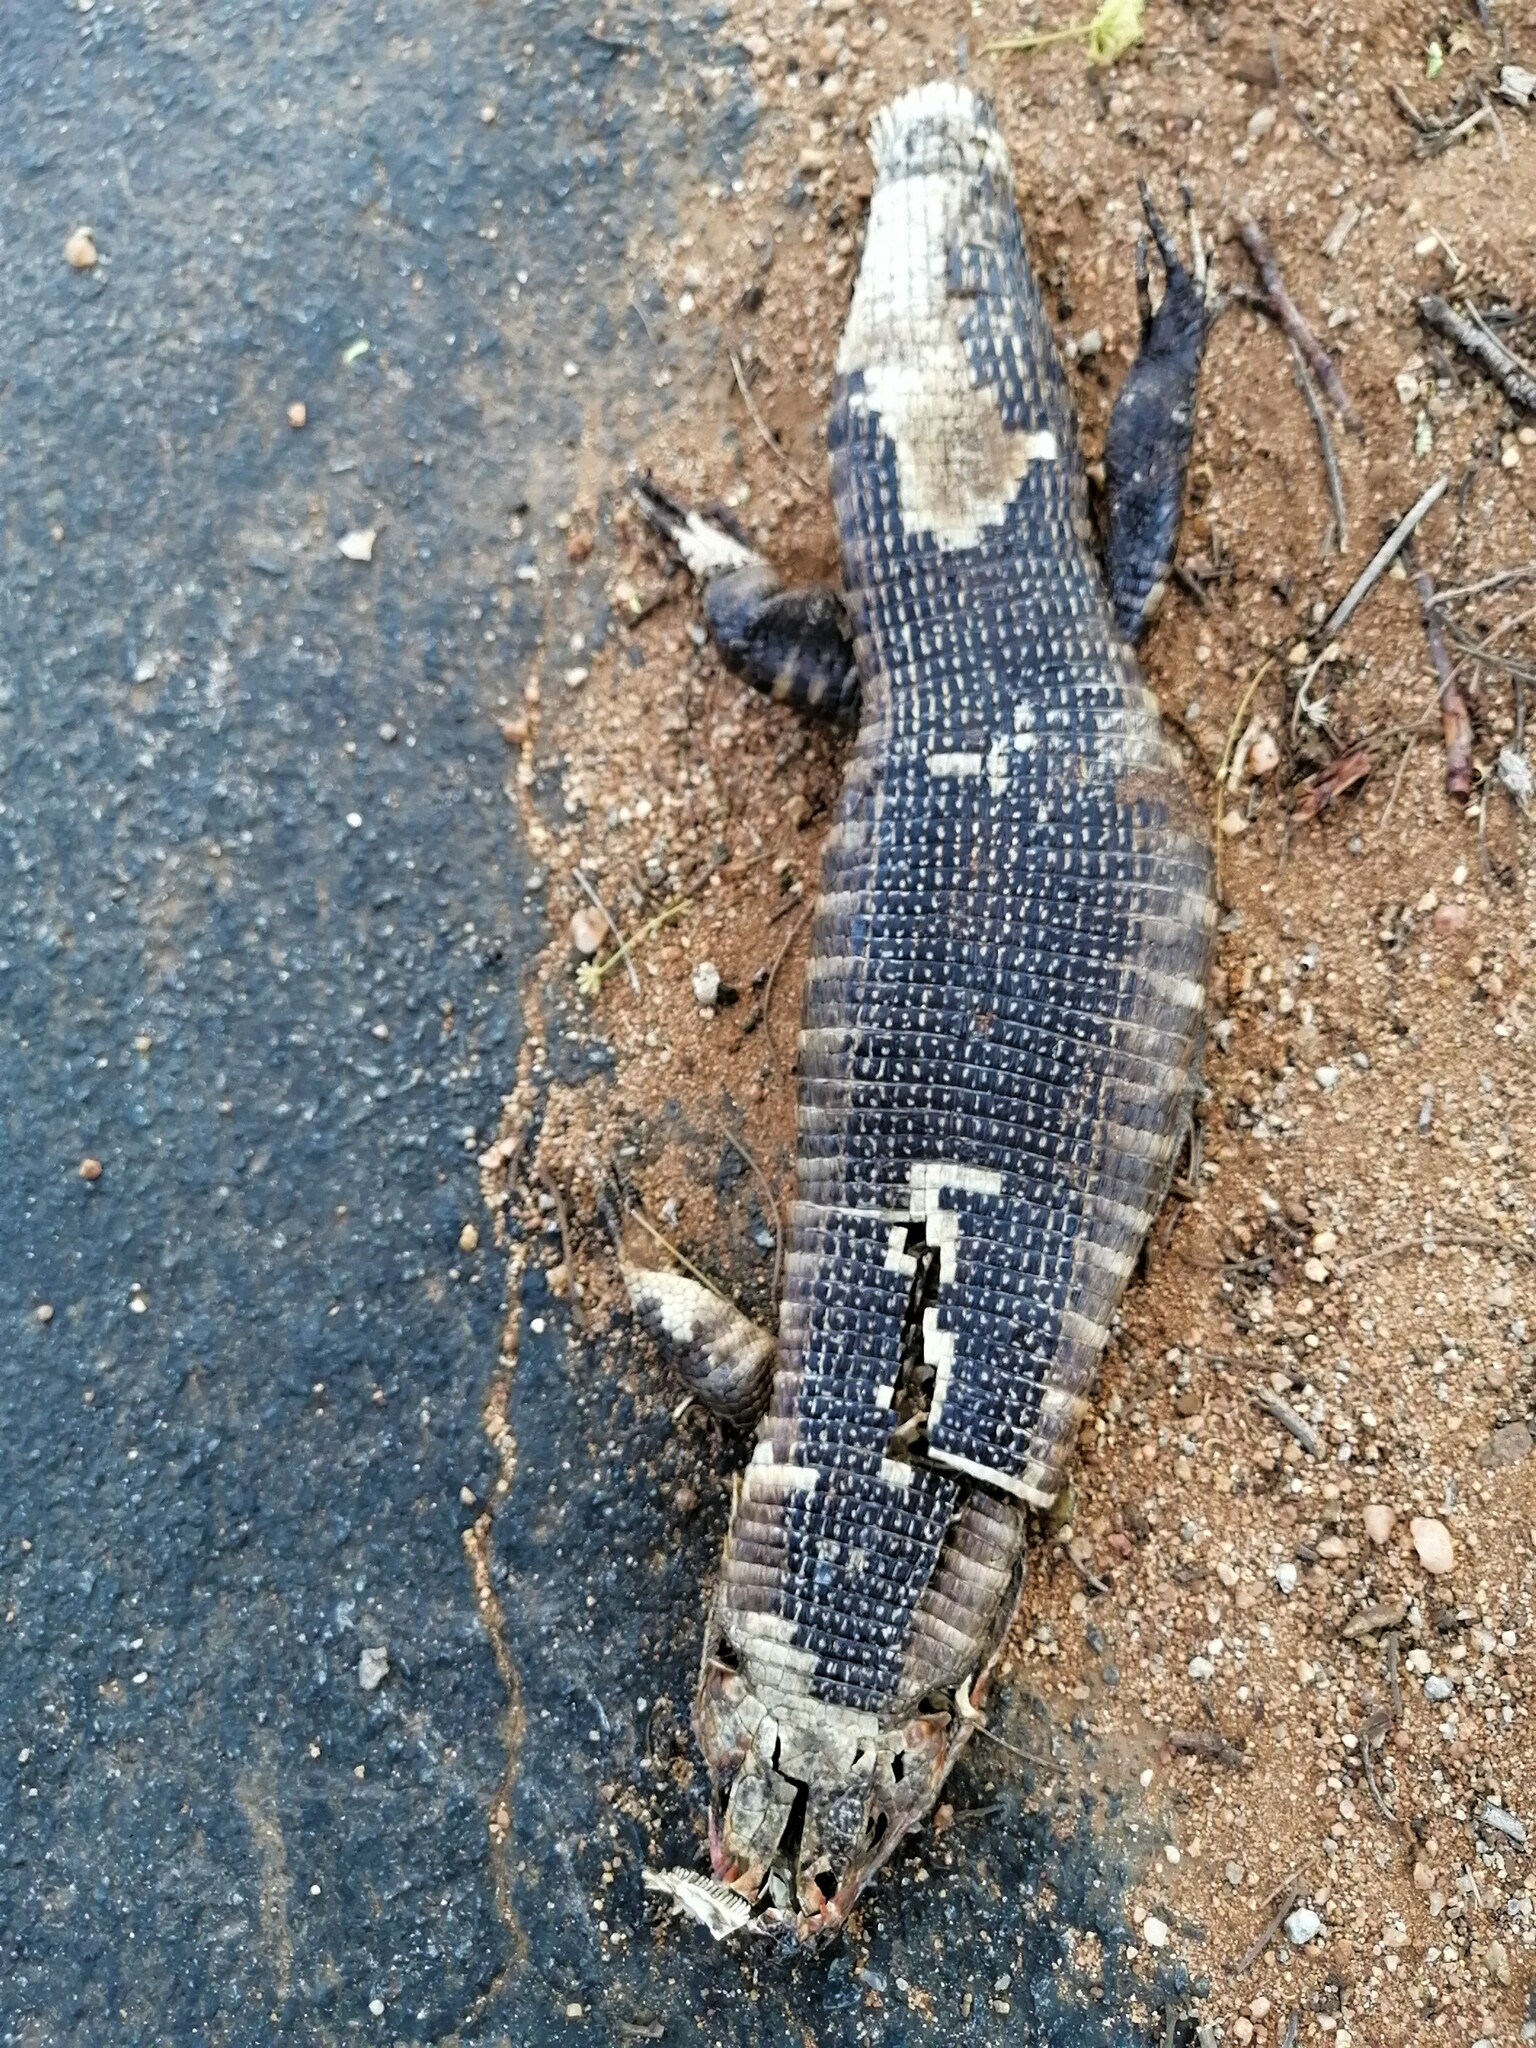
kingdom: Animalia
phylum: Chordata
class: Squamata
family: Gerrhosauridae
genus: Matobosaurus
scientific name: Matobosaurus validus
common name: Common giant plated lizard
